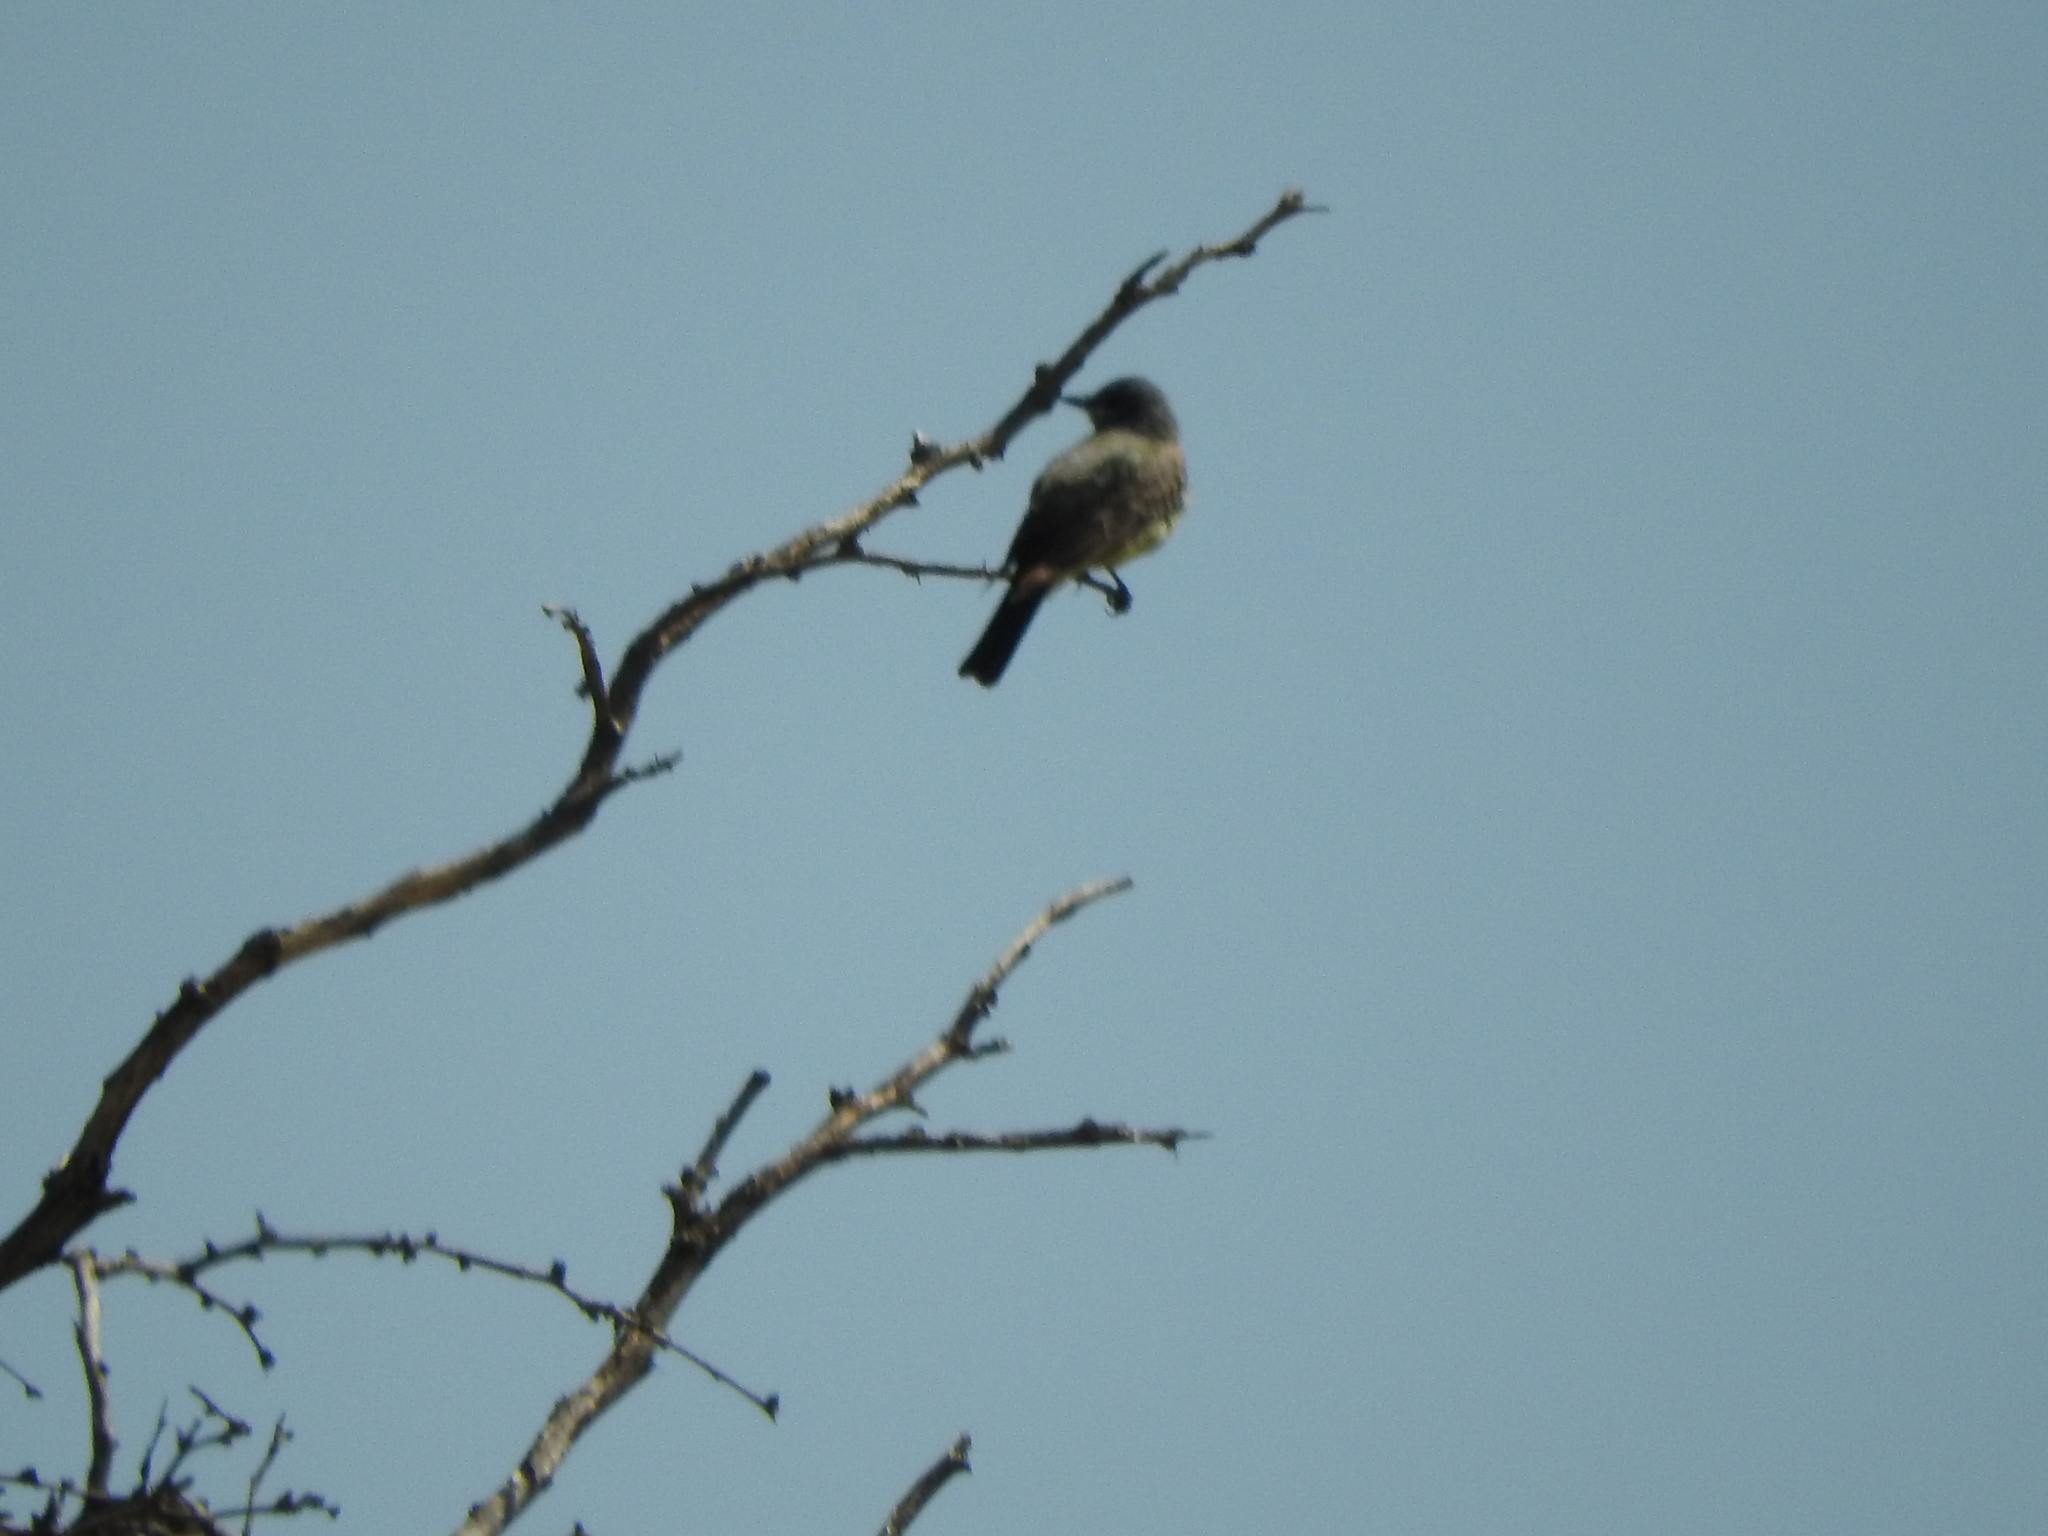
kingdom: Animalia
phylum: Chordata
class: Aves
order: Passeriformes
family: Tyrannidae
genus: Tyrannus
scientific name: Tyrannus vociferans
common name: Cassin's kingbird
